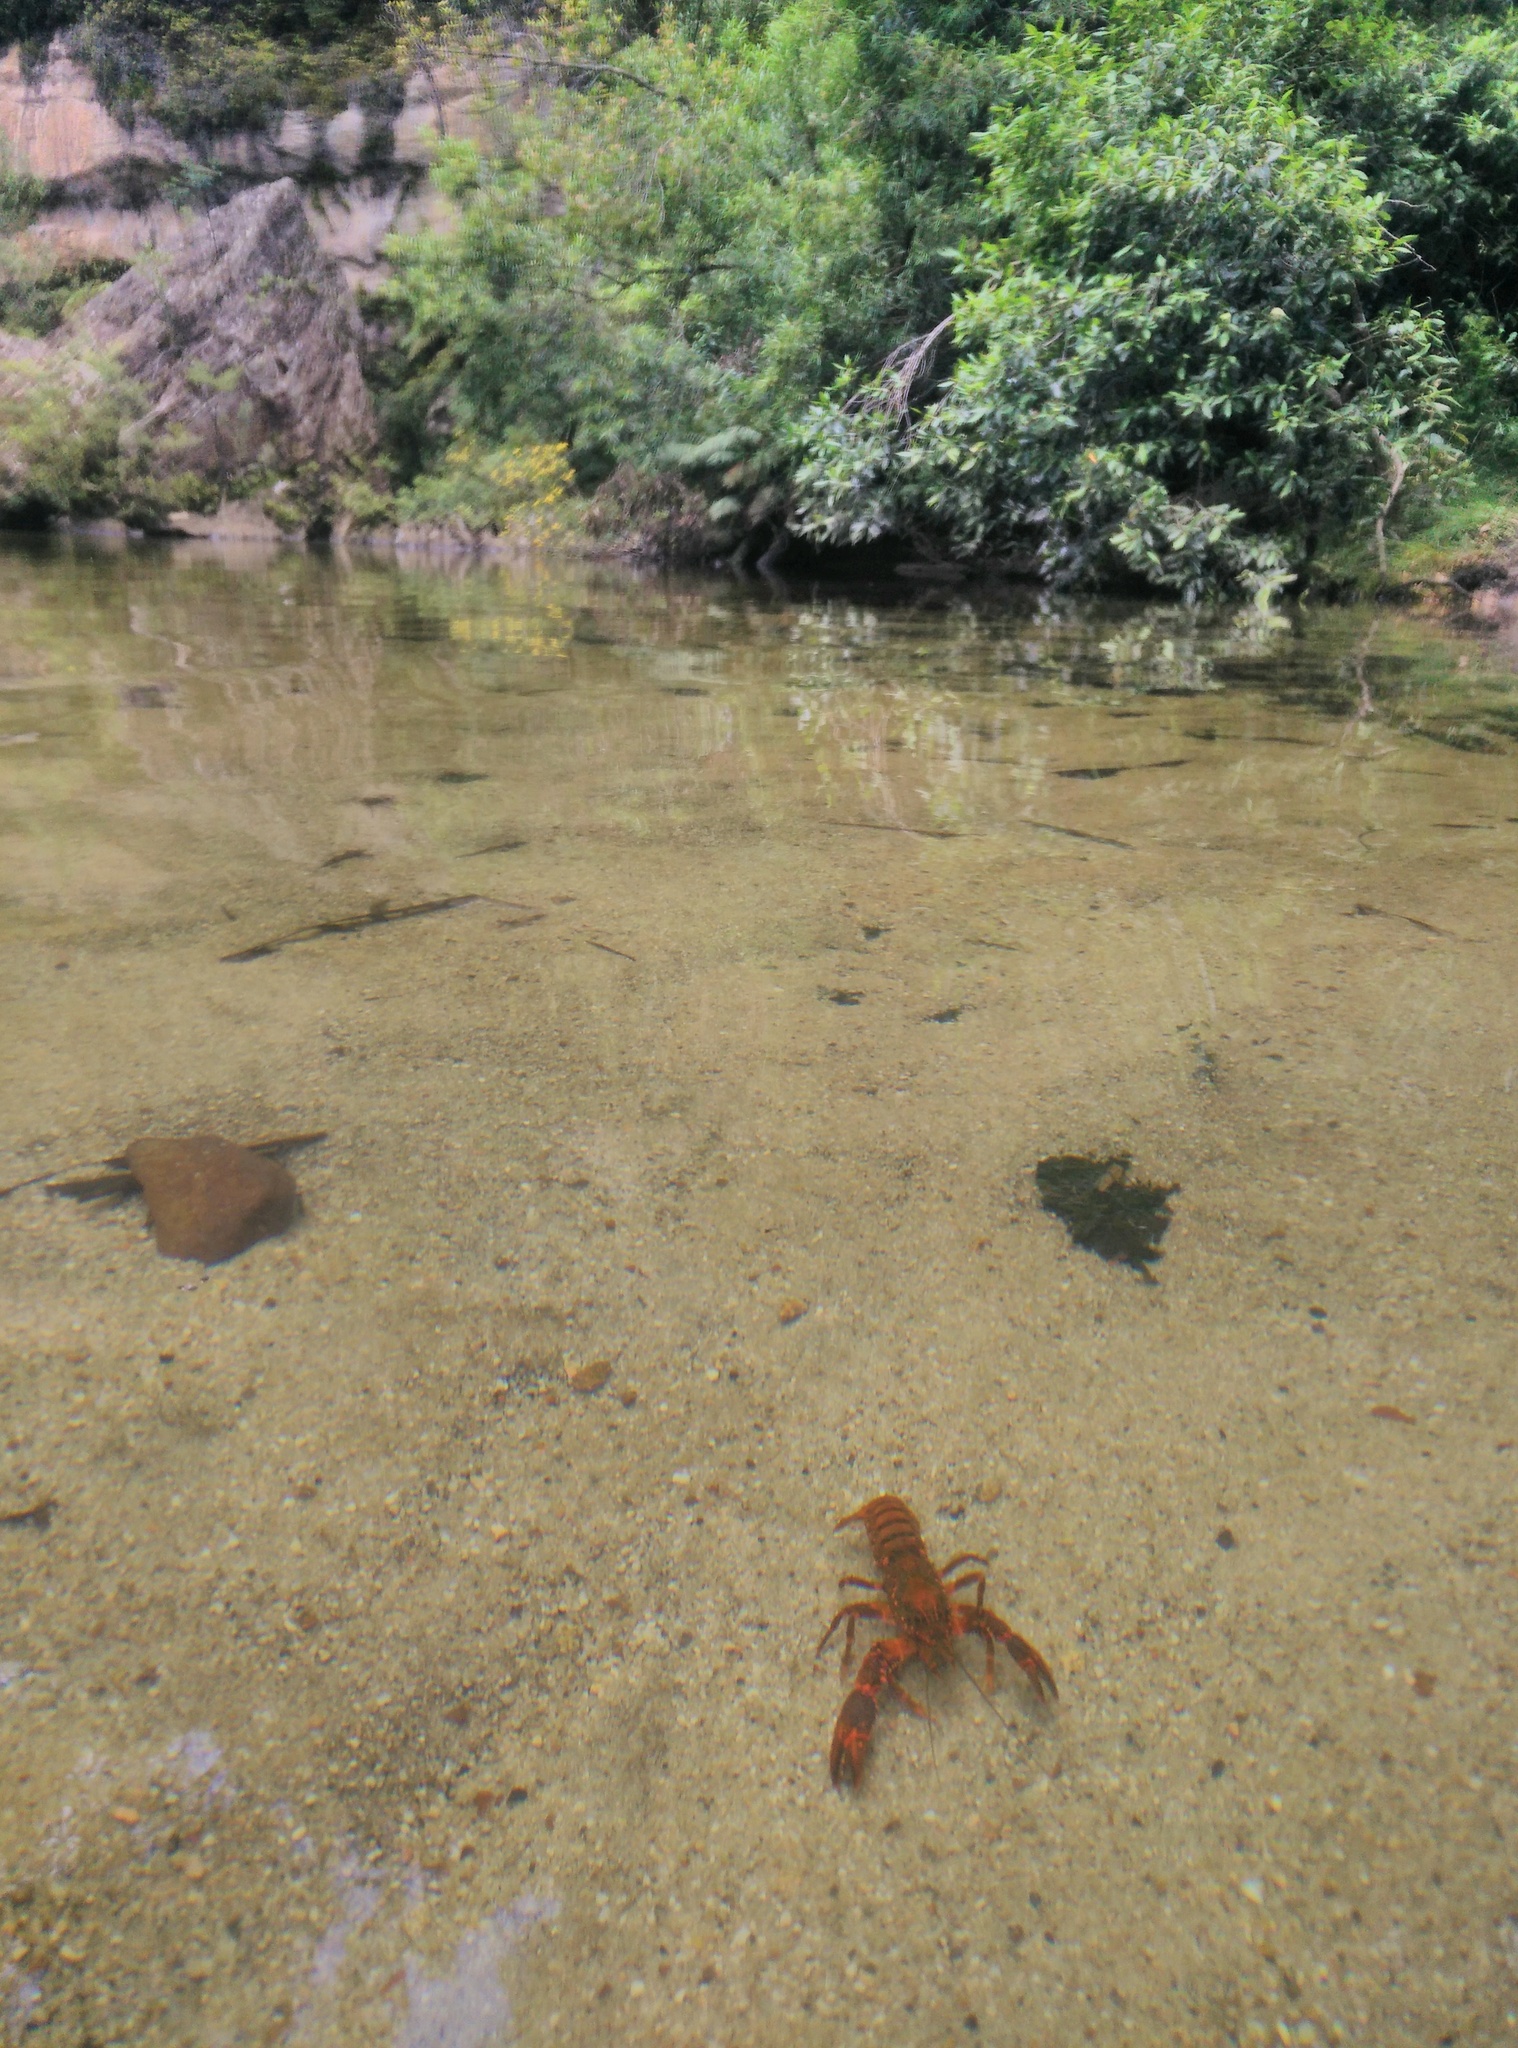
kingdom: Animalia
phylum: Arthropoda
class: Malacostraca
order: Decapoda
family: Parastacidae
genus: Euastacus
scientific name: Euastacus australasiensis
